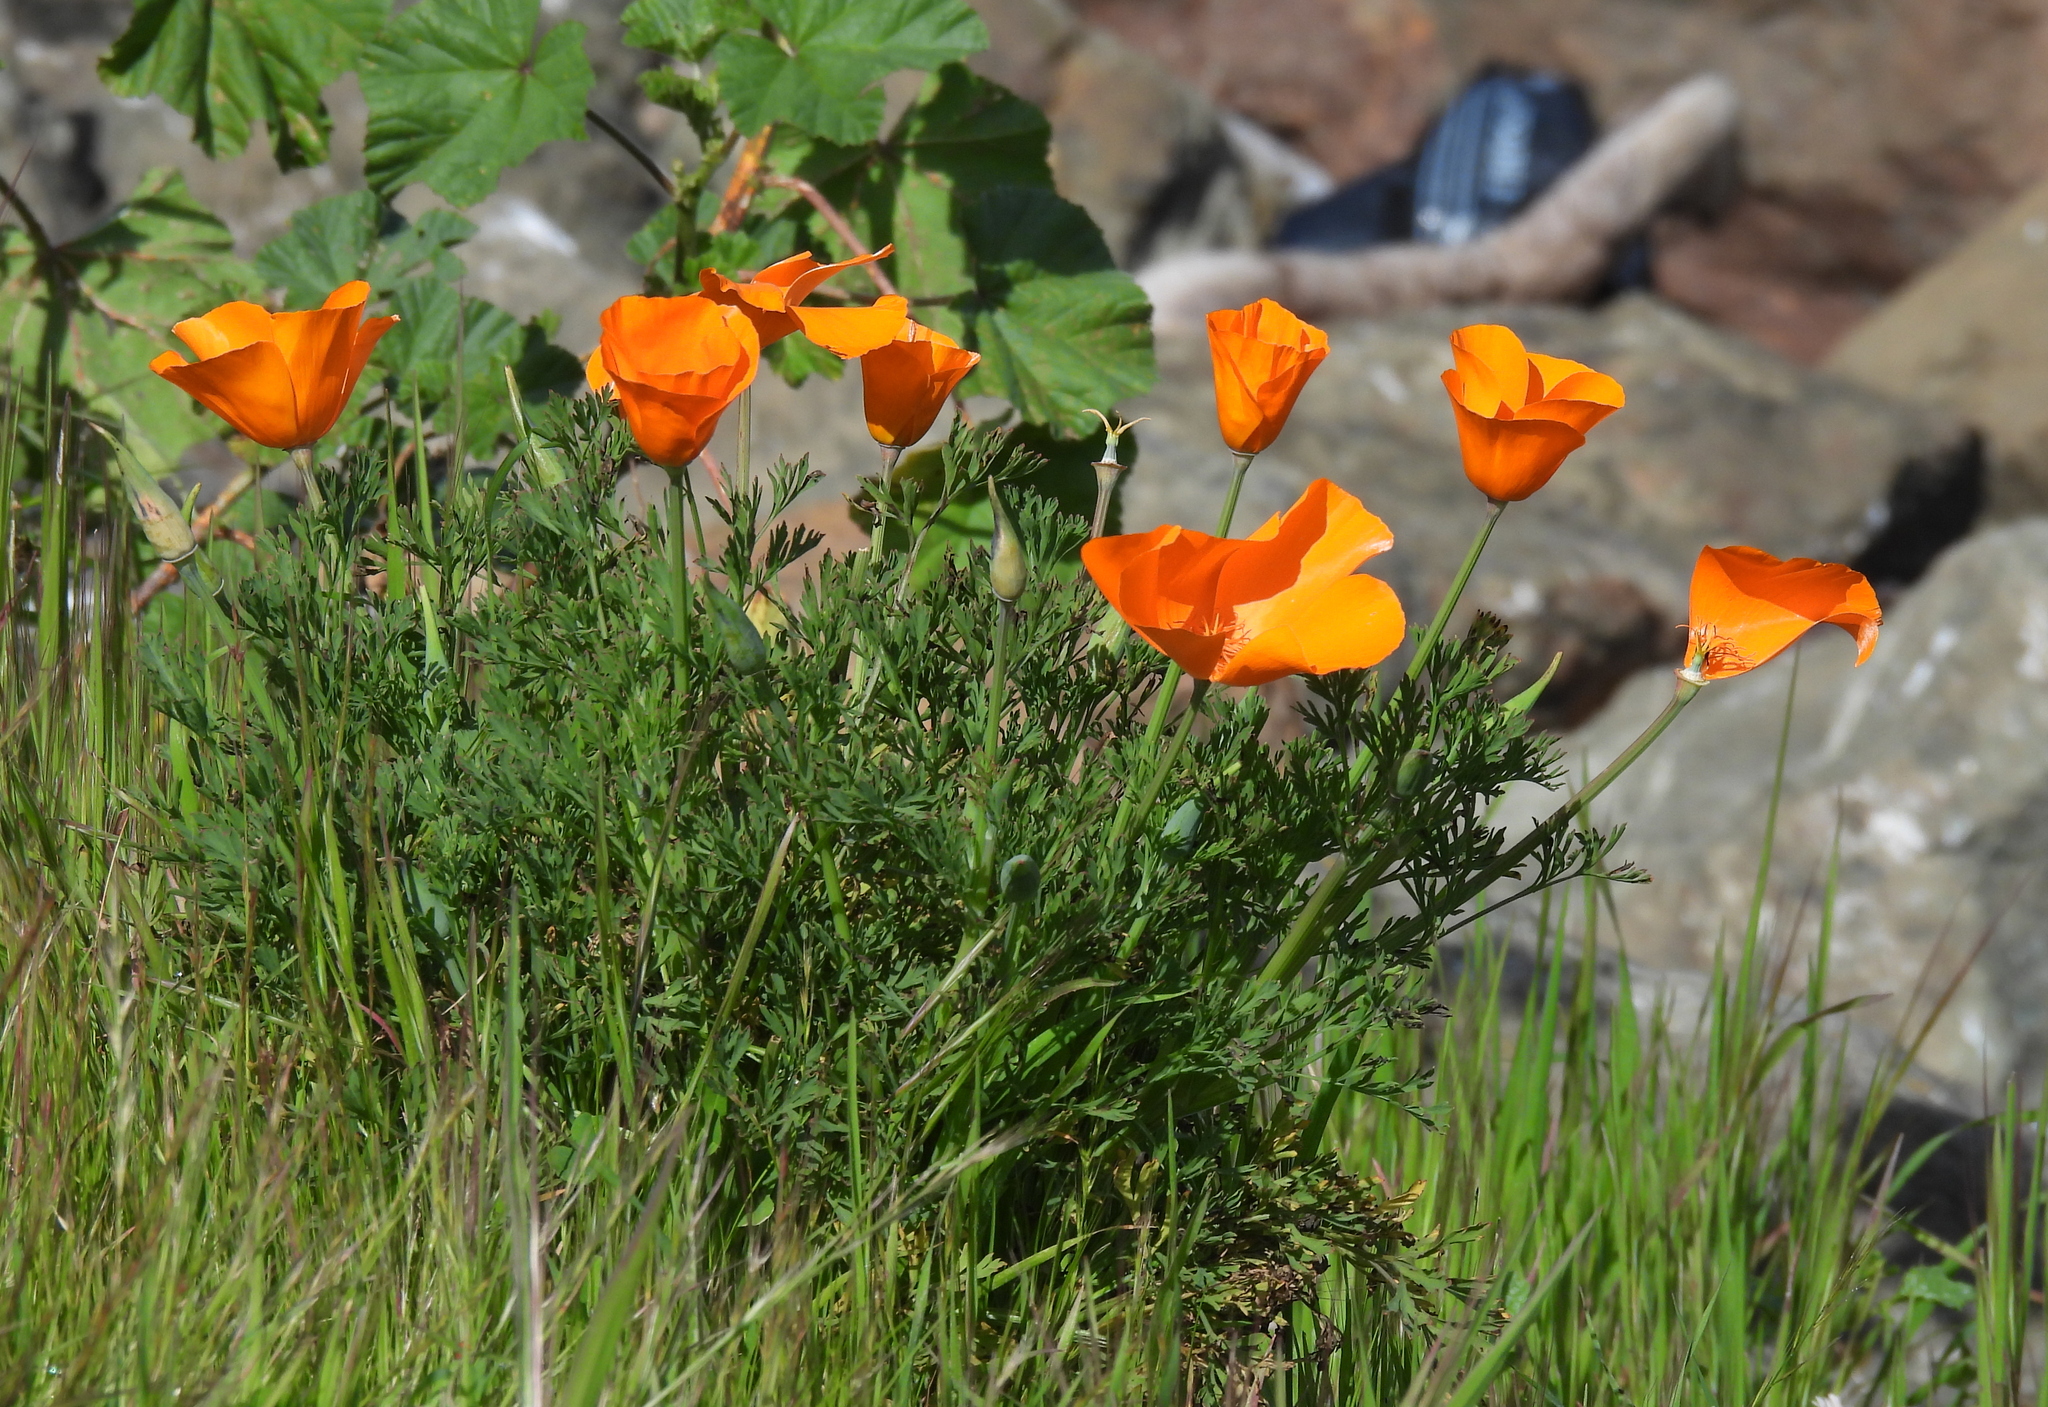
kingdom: Plantae
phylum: Tracheophyta
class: Magnoliopsida
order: Ranunculales
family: Papaveraceae
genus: Eschscholzia
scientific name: Eschscholzia californica
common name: California poppy
